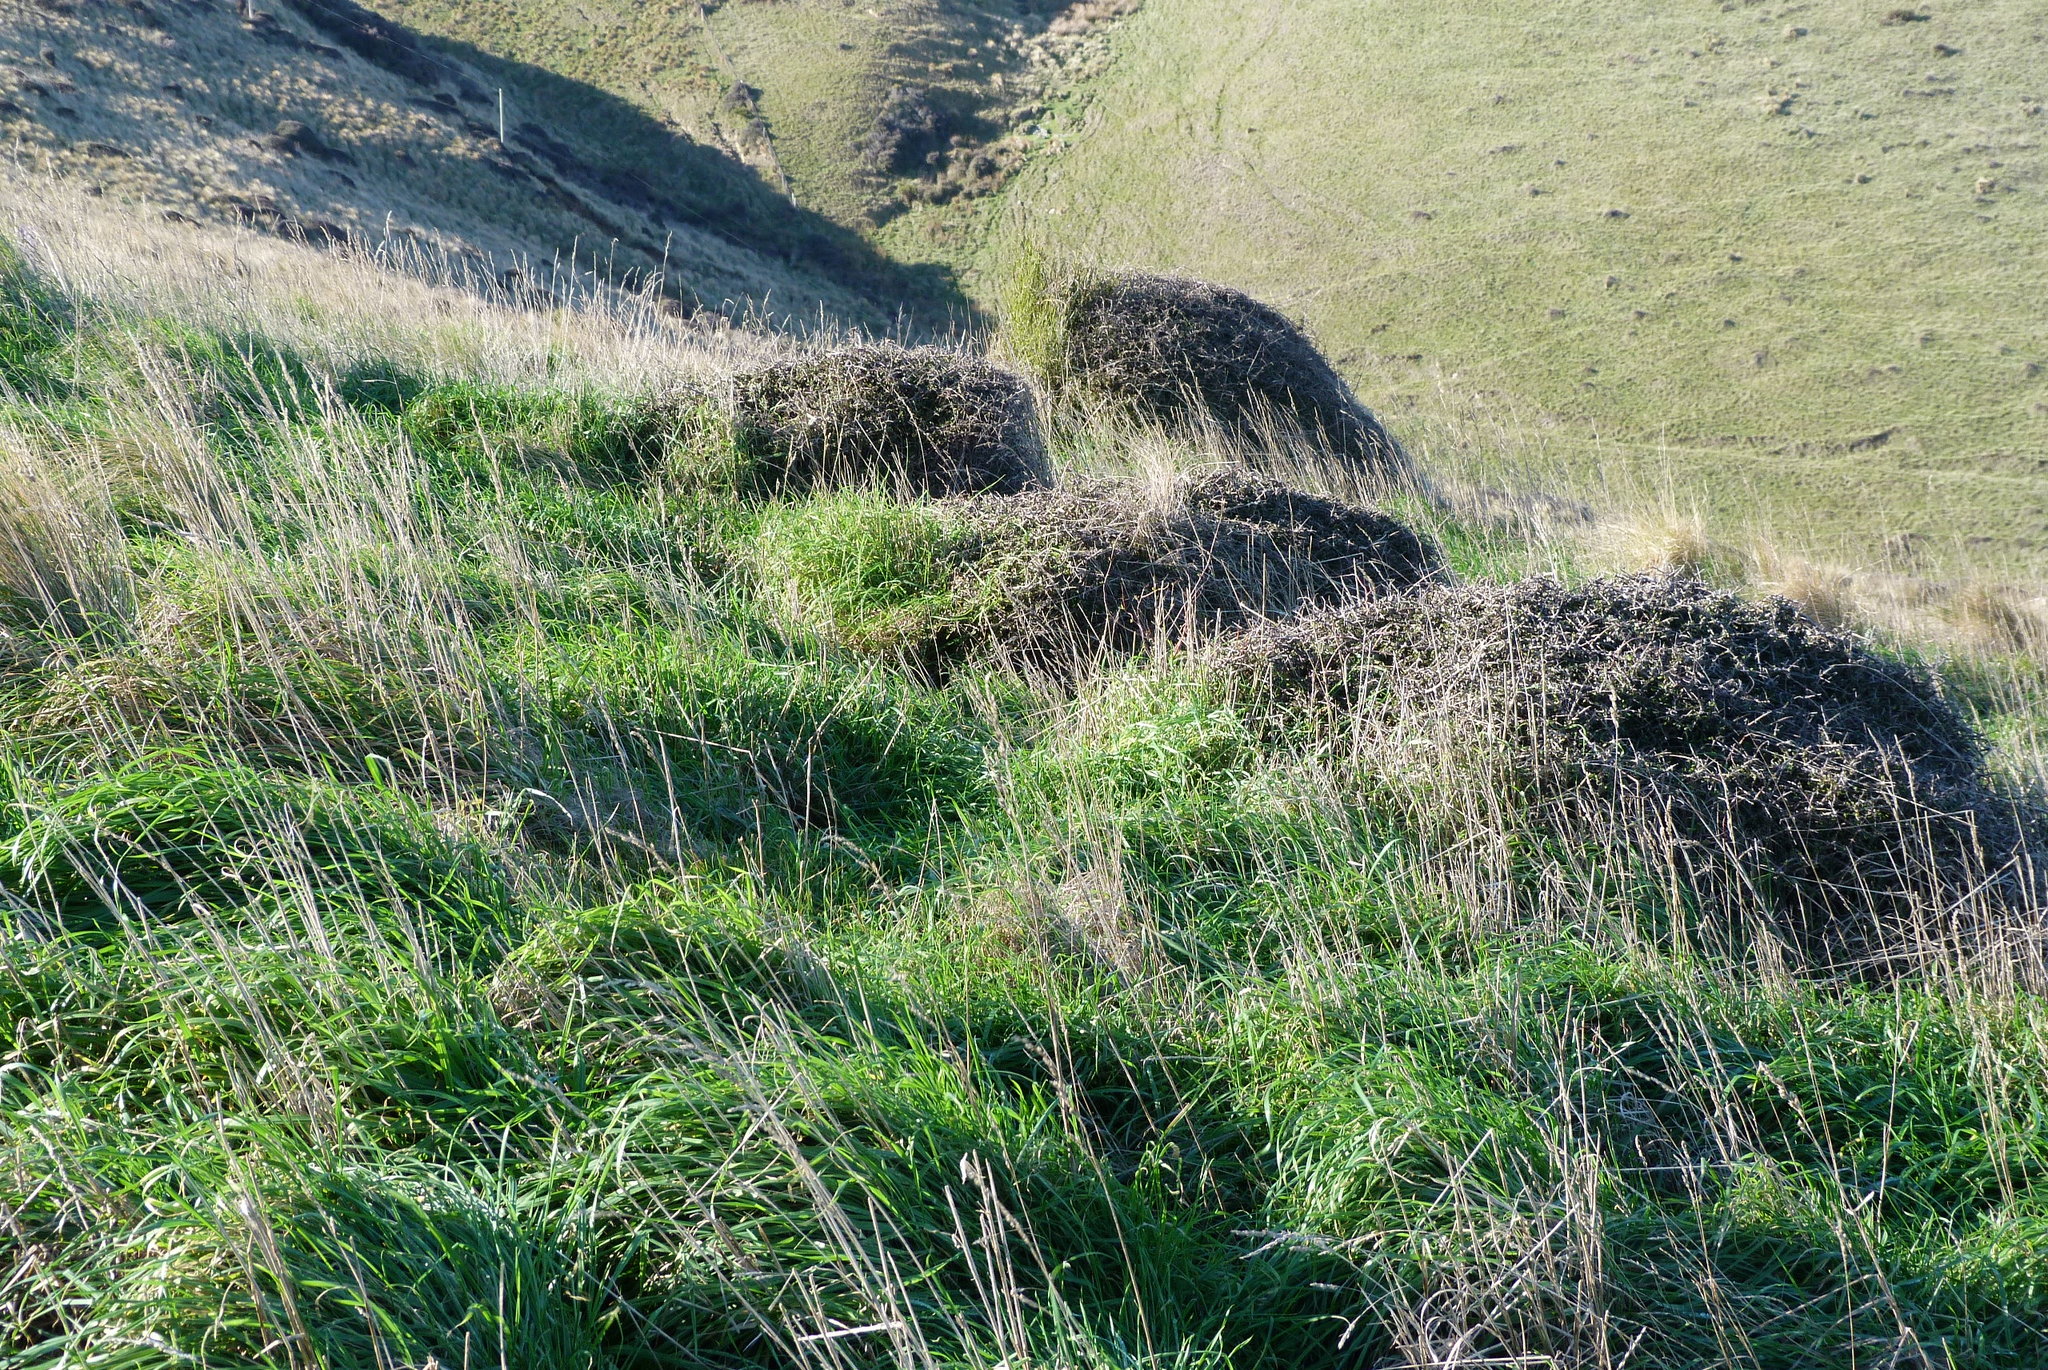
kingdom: Plantae
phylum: Tracheophyta
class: Magnoliopsida
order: Gentianales
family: Rubiaceae
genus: Coprosma
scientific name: Coprosma propinqua
